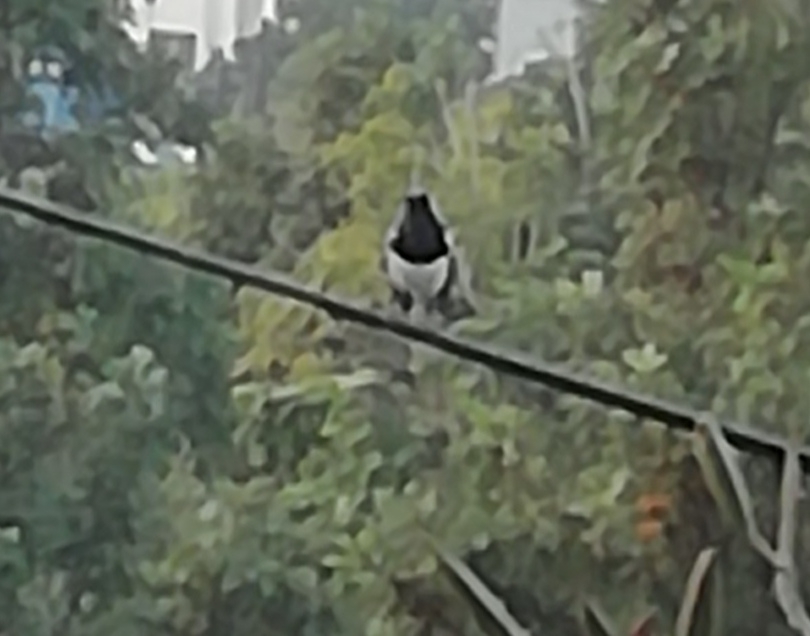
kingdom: Animalia
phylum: Chordata
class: Aves
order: Passeriformes
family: Muscicapidae
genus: Copsychus
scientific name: Copsychus saularis
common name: Oriental magpie-robin
